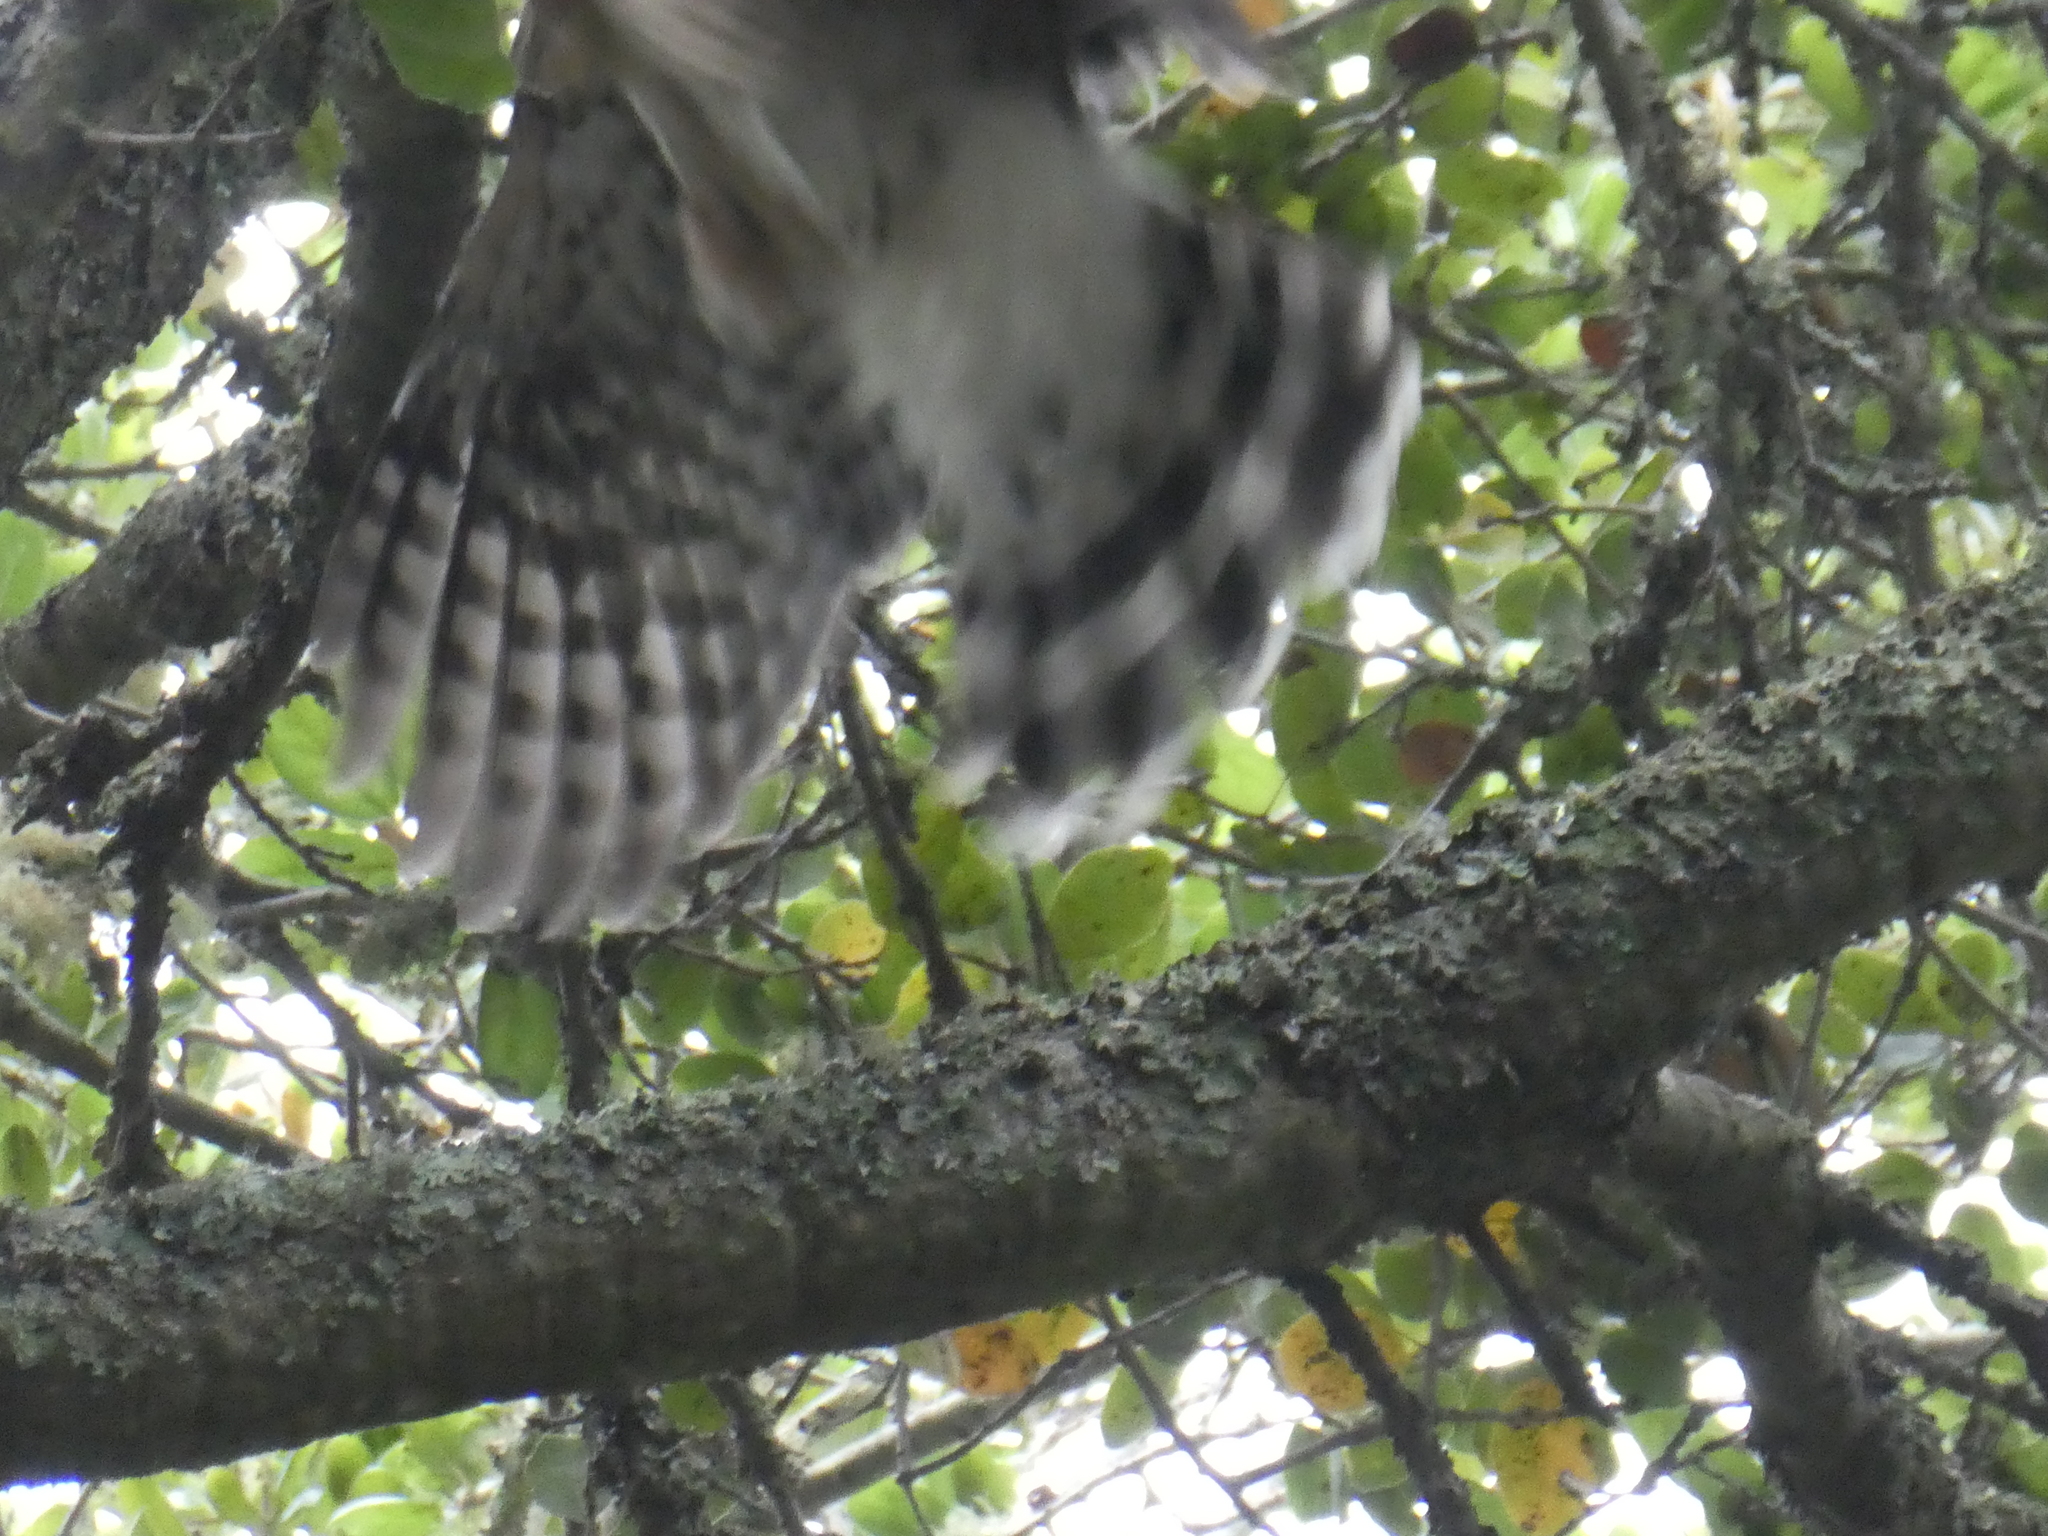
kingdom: Animalia
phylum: Chordata
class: Aves
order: Accipitriformes
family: Accipitridae
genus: Accipiter
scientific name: Accipiter cooperii
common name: Cooper's hawk
